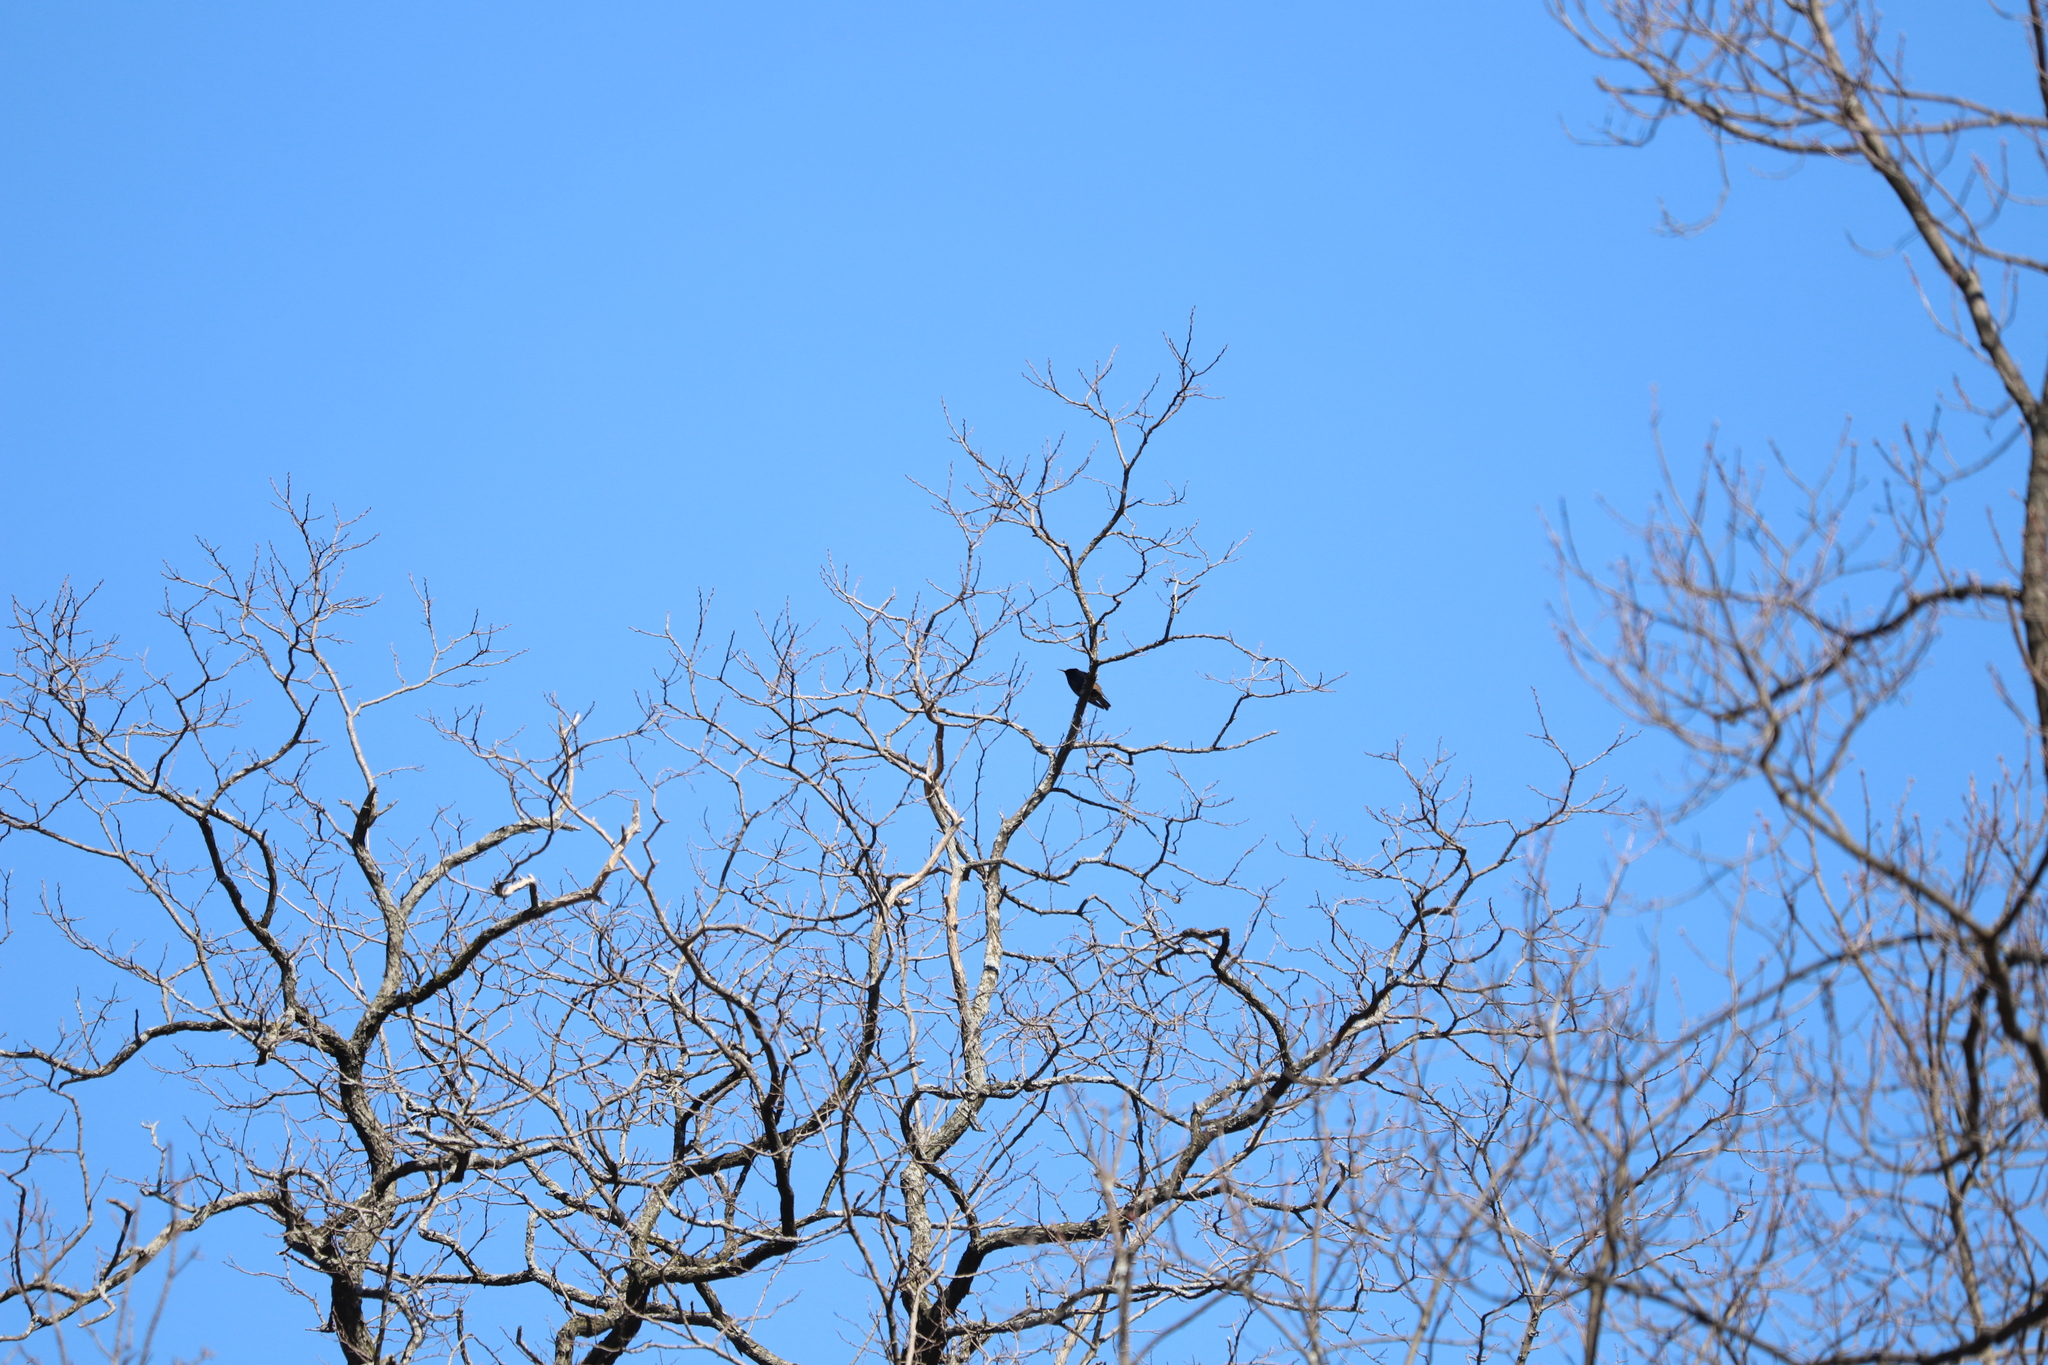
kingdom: Animalia
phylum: Chordata
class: Aves
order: Passeriformes
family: Sturnidae
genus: Sturnus
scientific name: Sturnus vulgaris
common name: Common starling
